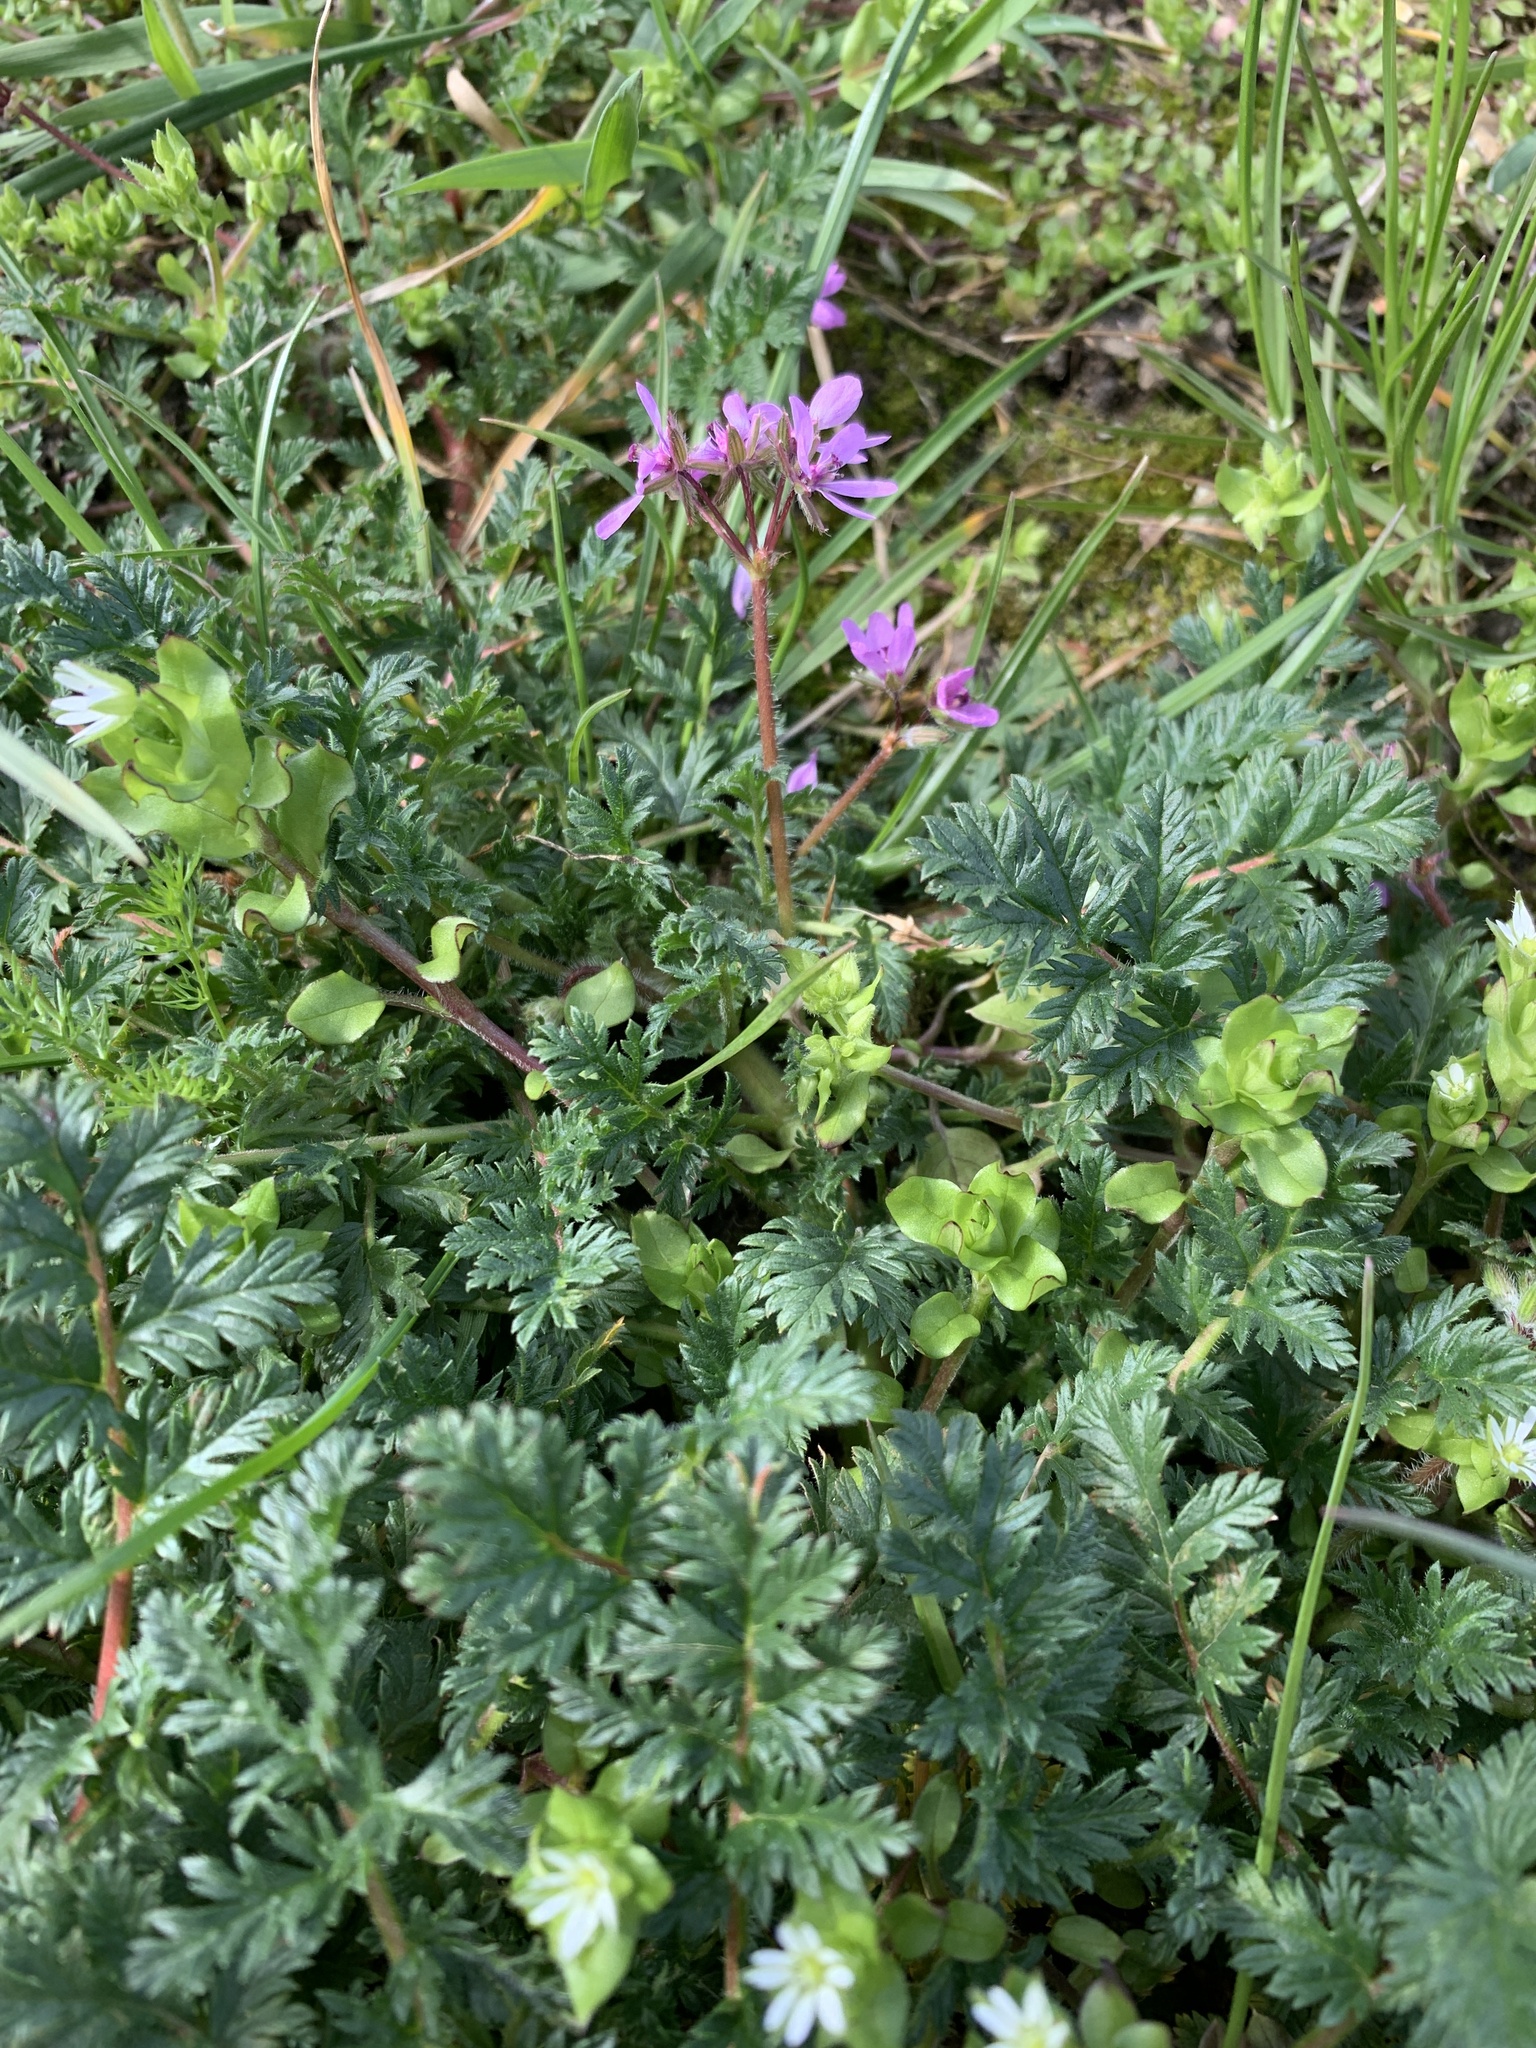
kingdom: Plantae
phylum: Tracheophyta
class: Magnoliopsida
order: Geraniales
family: Geraniaceae
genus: Erodium
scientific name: Erodium cicutarium
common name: Common stork's-bill
